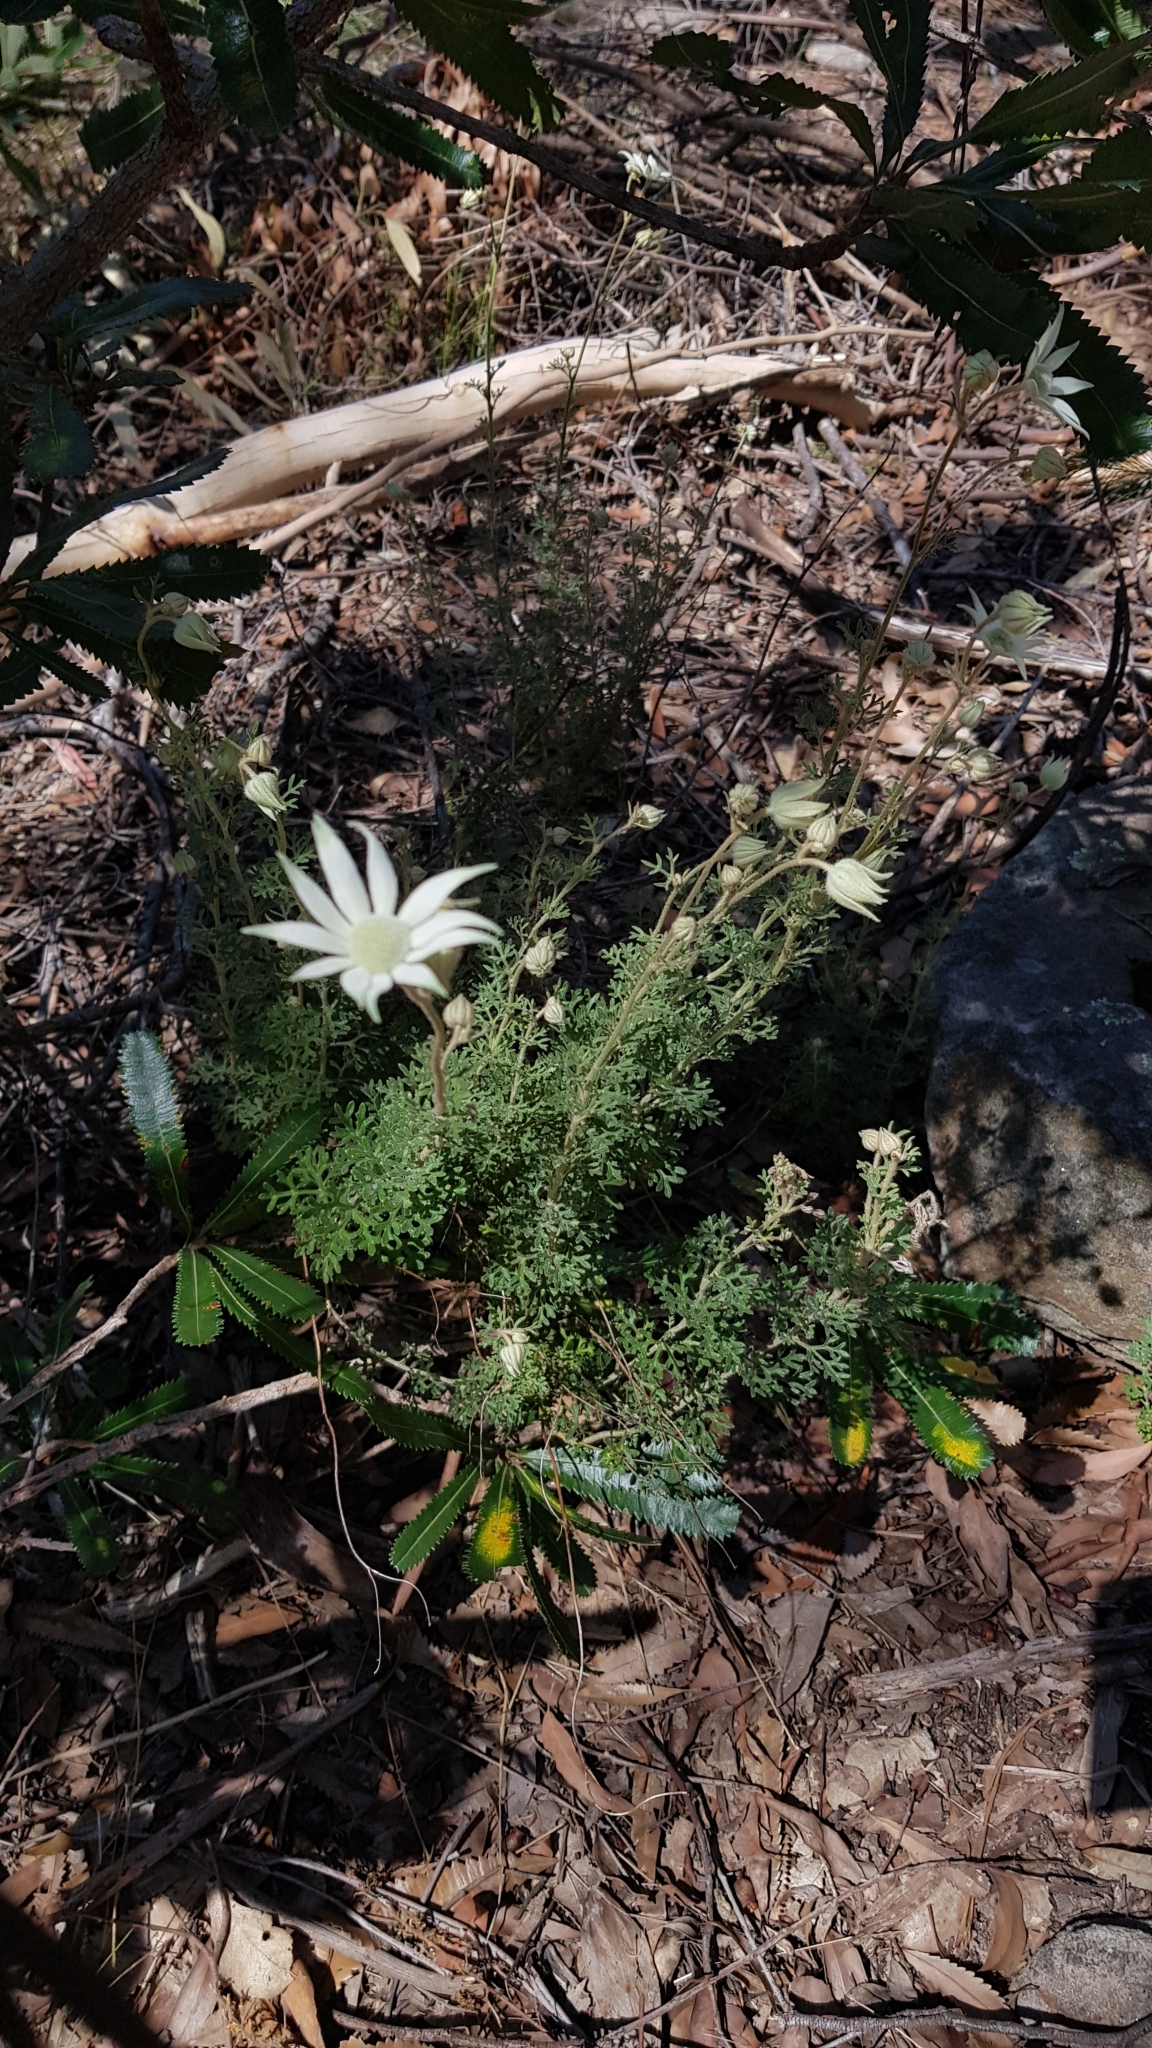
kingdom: Plantae
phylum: Tracheophyta
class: Magnoliopsida
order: Apiales
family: Apiaceae
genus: Actinotus
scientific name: Actinotus helianthi
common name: Flannel-flower
